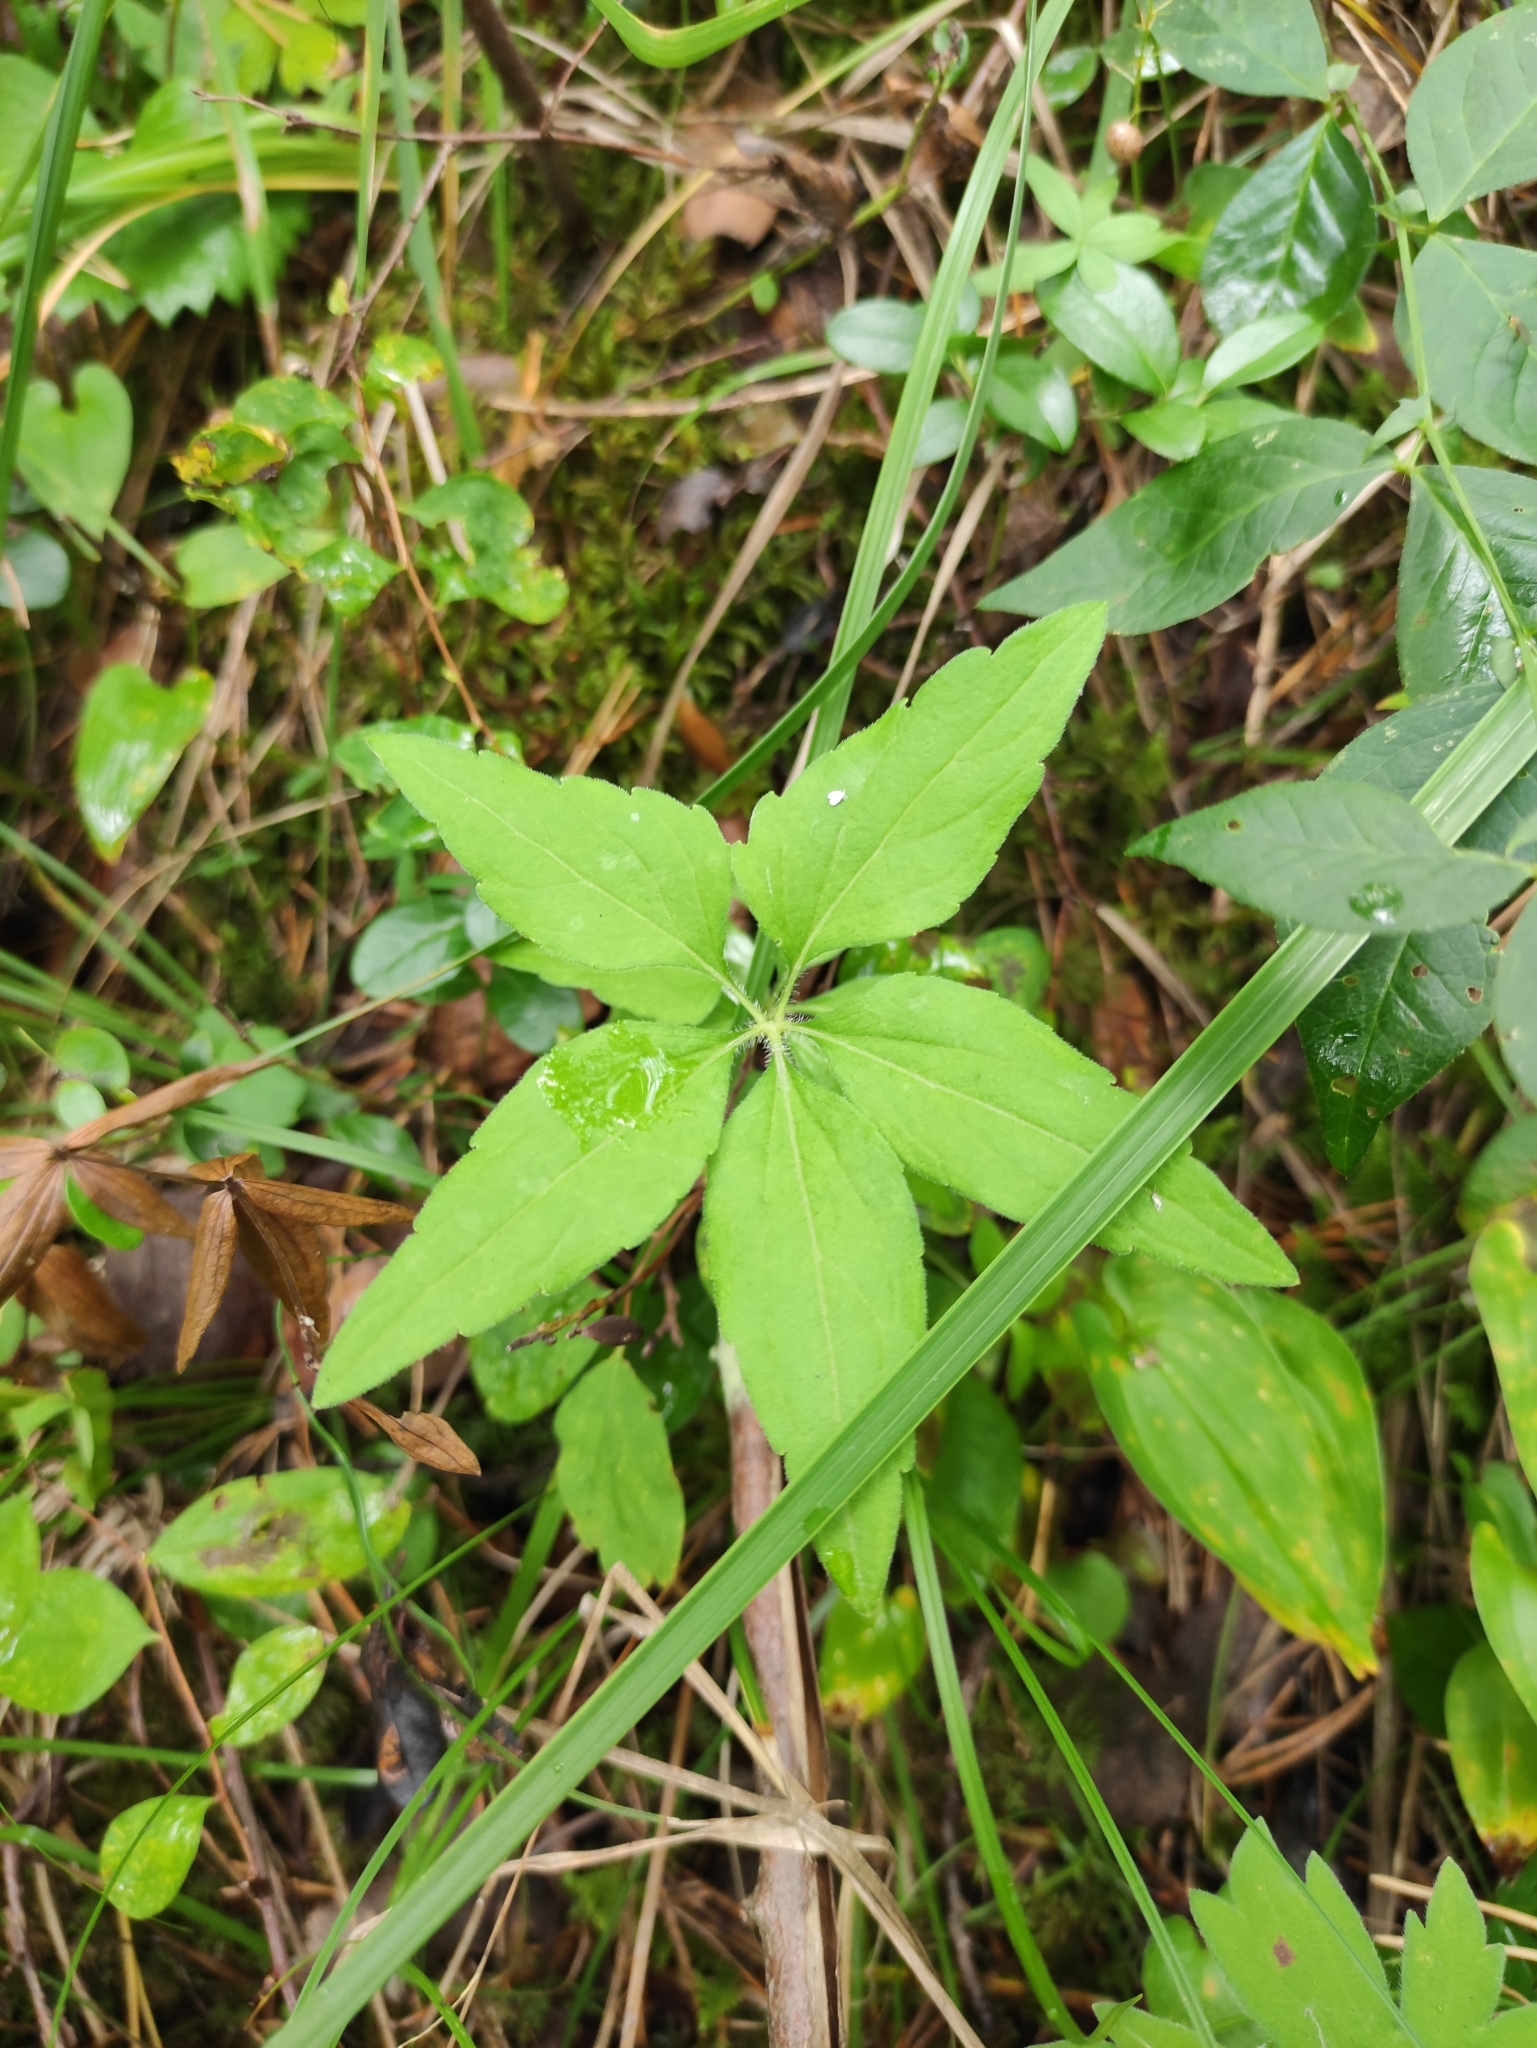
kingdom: Plantae
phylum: Tracheophyta
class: Magnoliopsida
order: Malpighiales
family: Violaceae
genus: Viola
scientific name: Viola dactyloides
